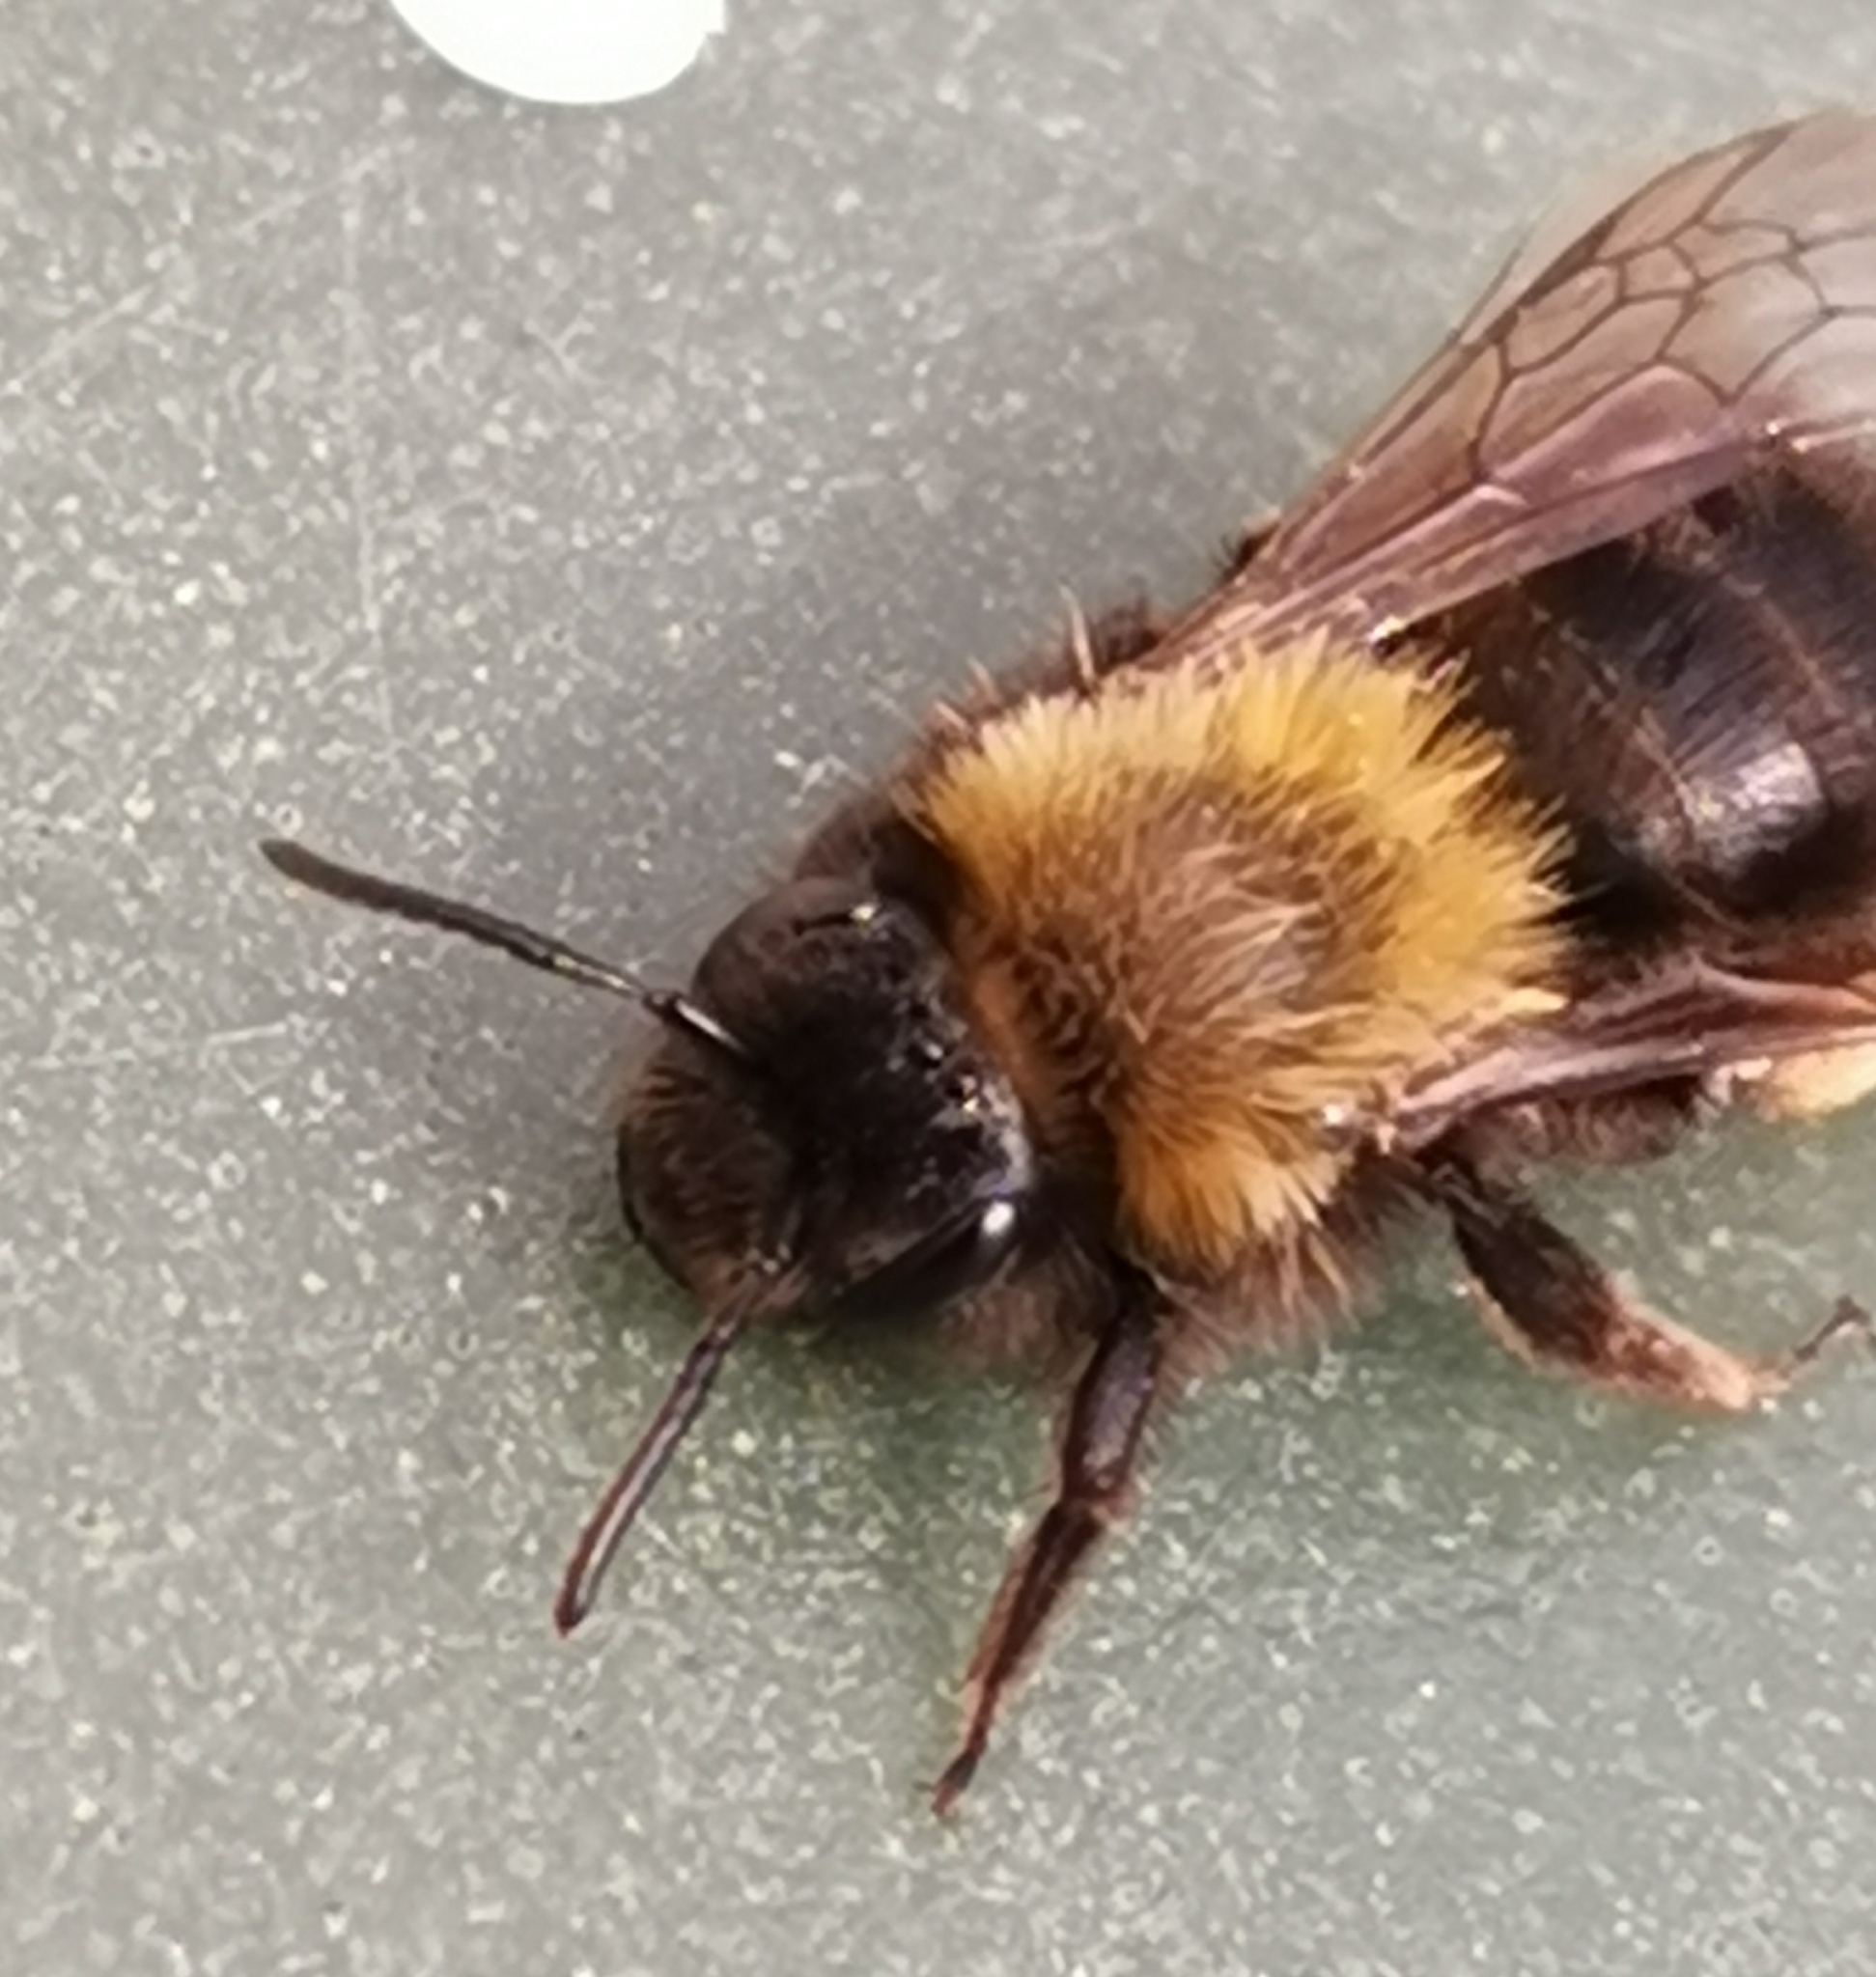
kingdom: Animalia
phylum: Arthropoda
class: Insecta
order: Hymenoptera
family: Andrenidae
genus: Andrena
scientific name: Andrena clarkella
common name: Clarke's mining bee
